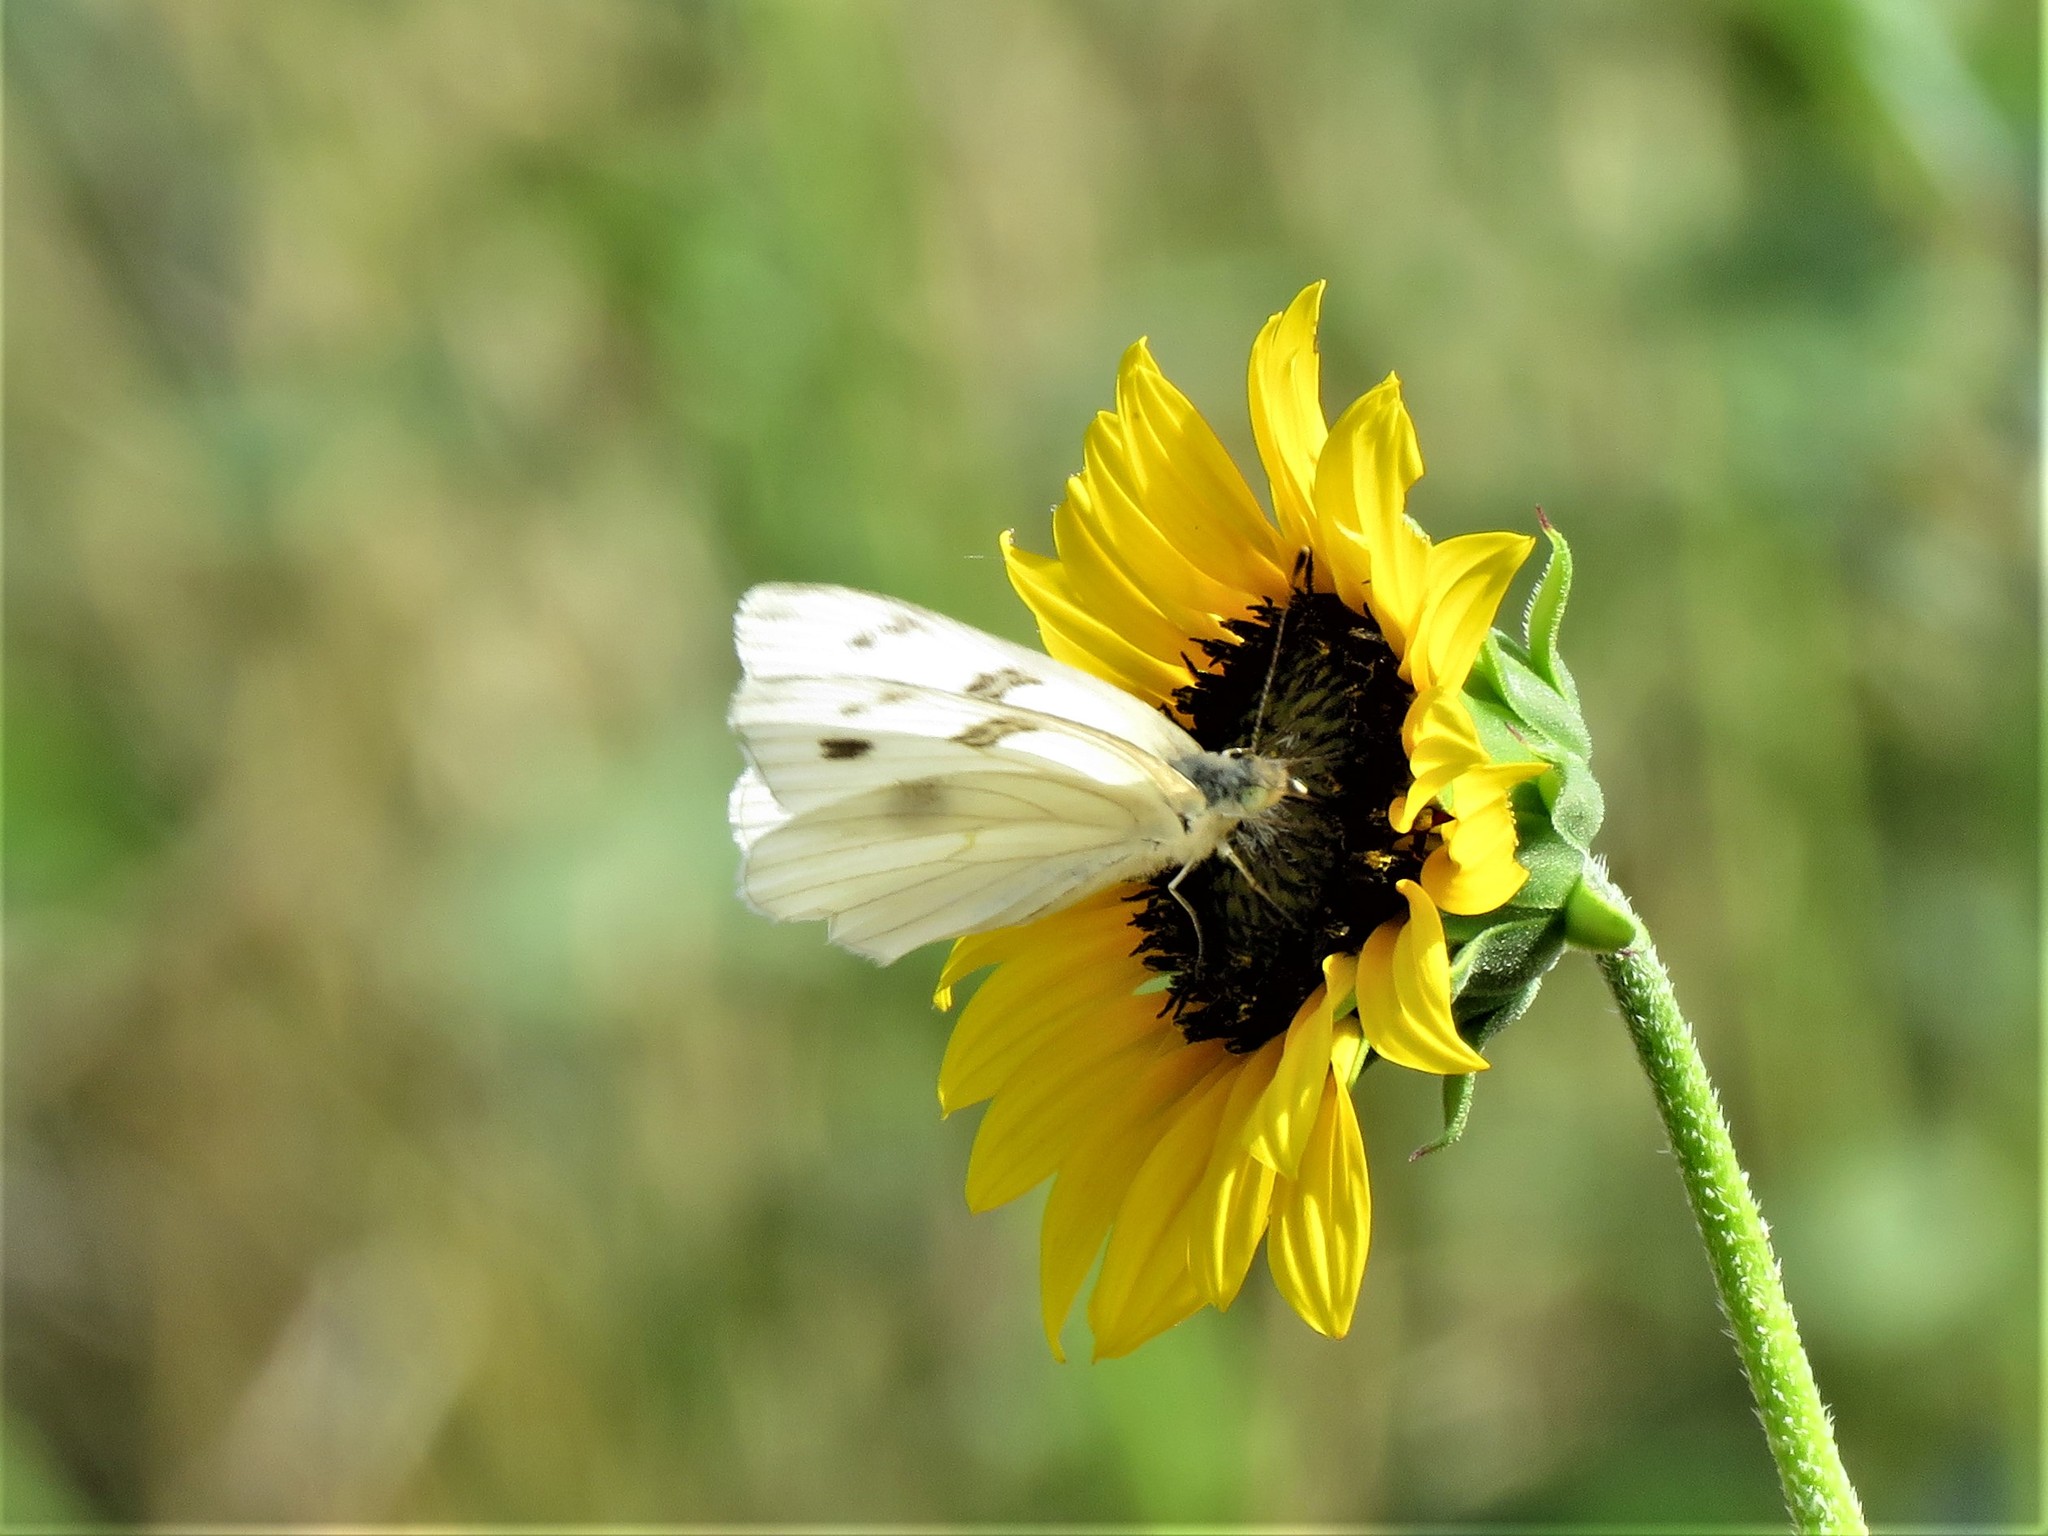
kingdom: Animalia
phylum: Arthropoda
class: Insecta
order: Lepidoptera
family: Pieridae
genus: Pontia
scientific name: Pontia protodice
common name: Checkered white
